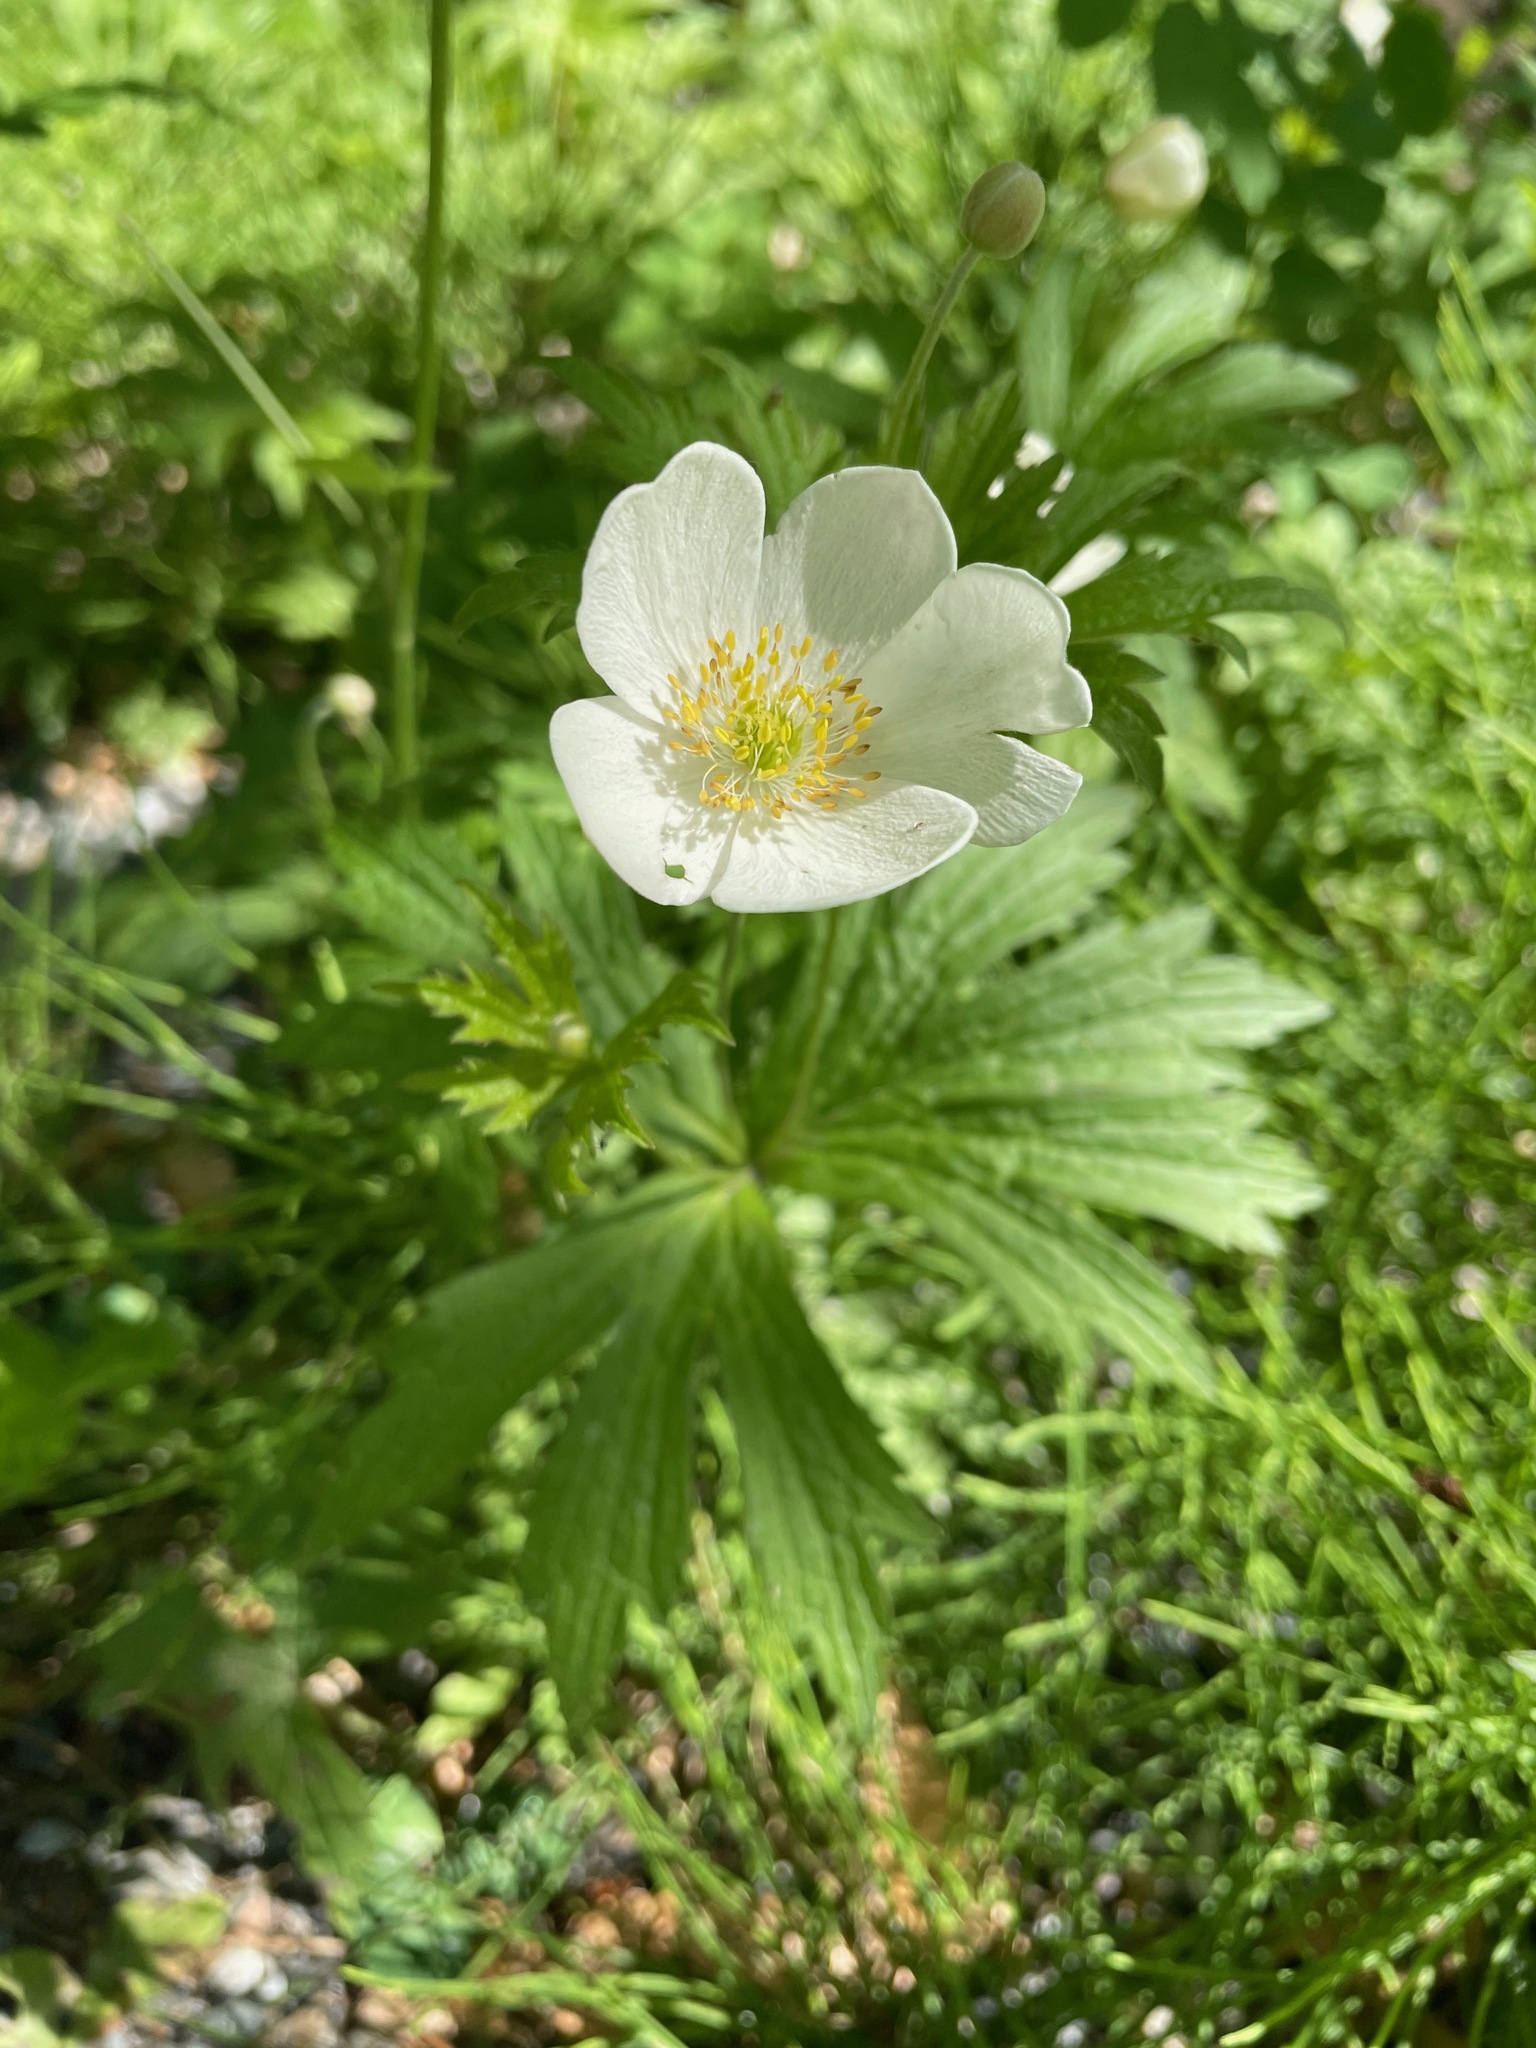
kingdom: Plantae
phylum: Tracheophyta
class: Magnoliopsida
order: Ranunculales
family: Ranunculaceae
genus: Anemonastrum
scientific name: Anemonastrum canadense
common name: Canada anemone
